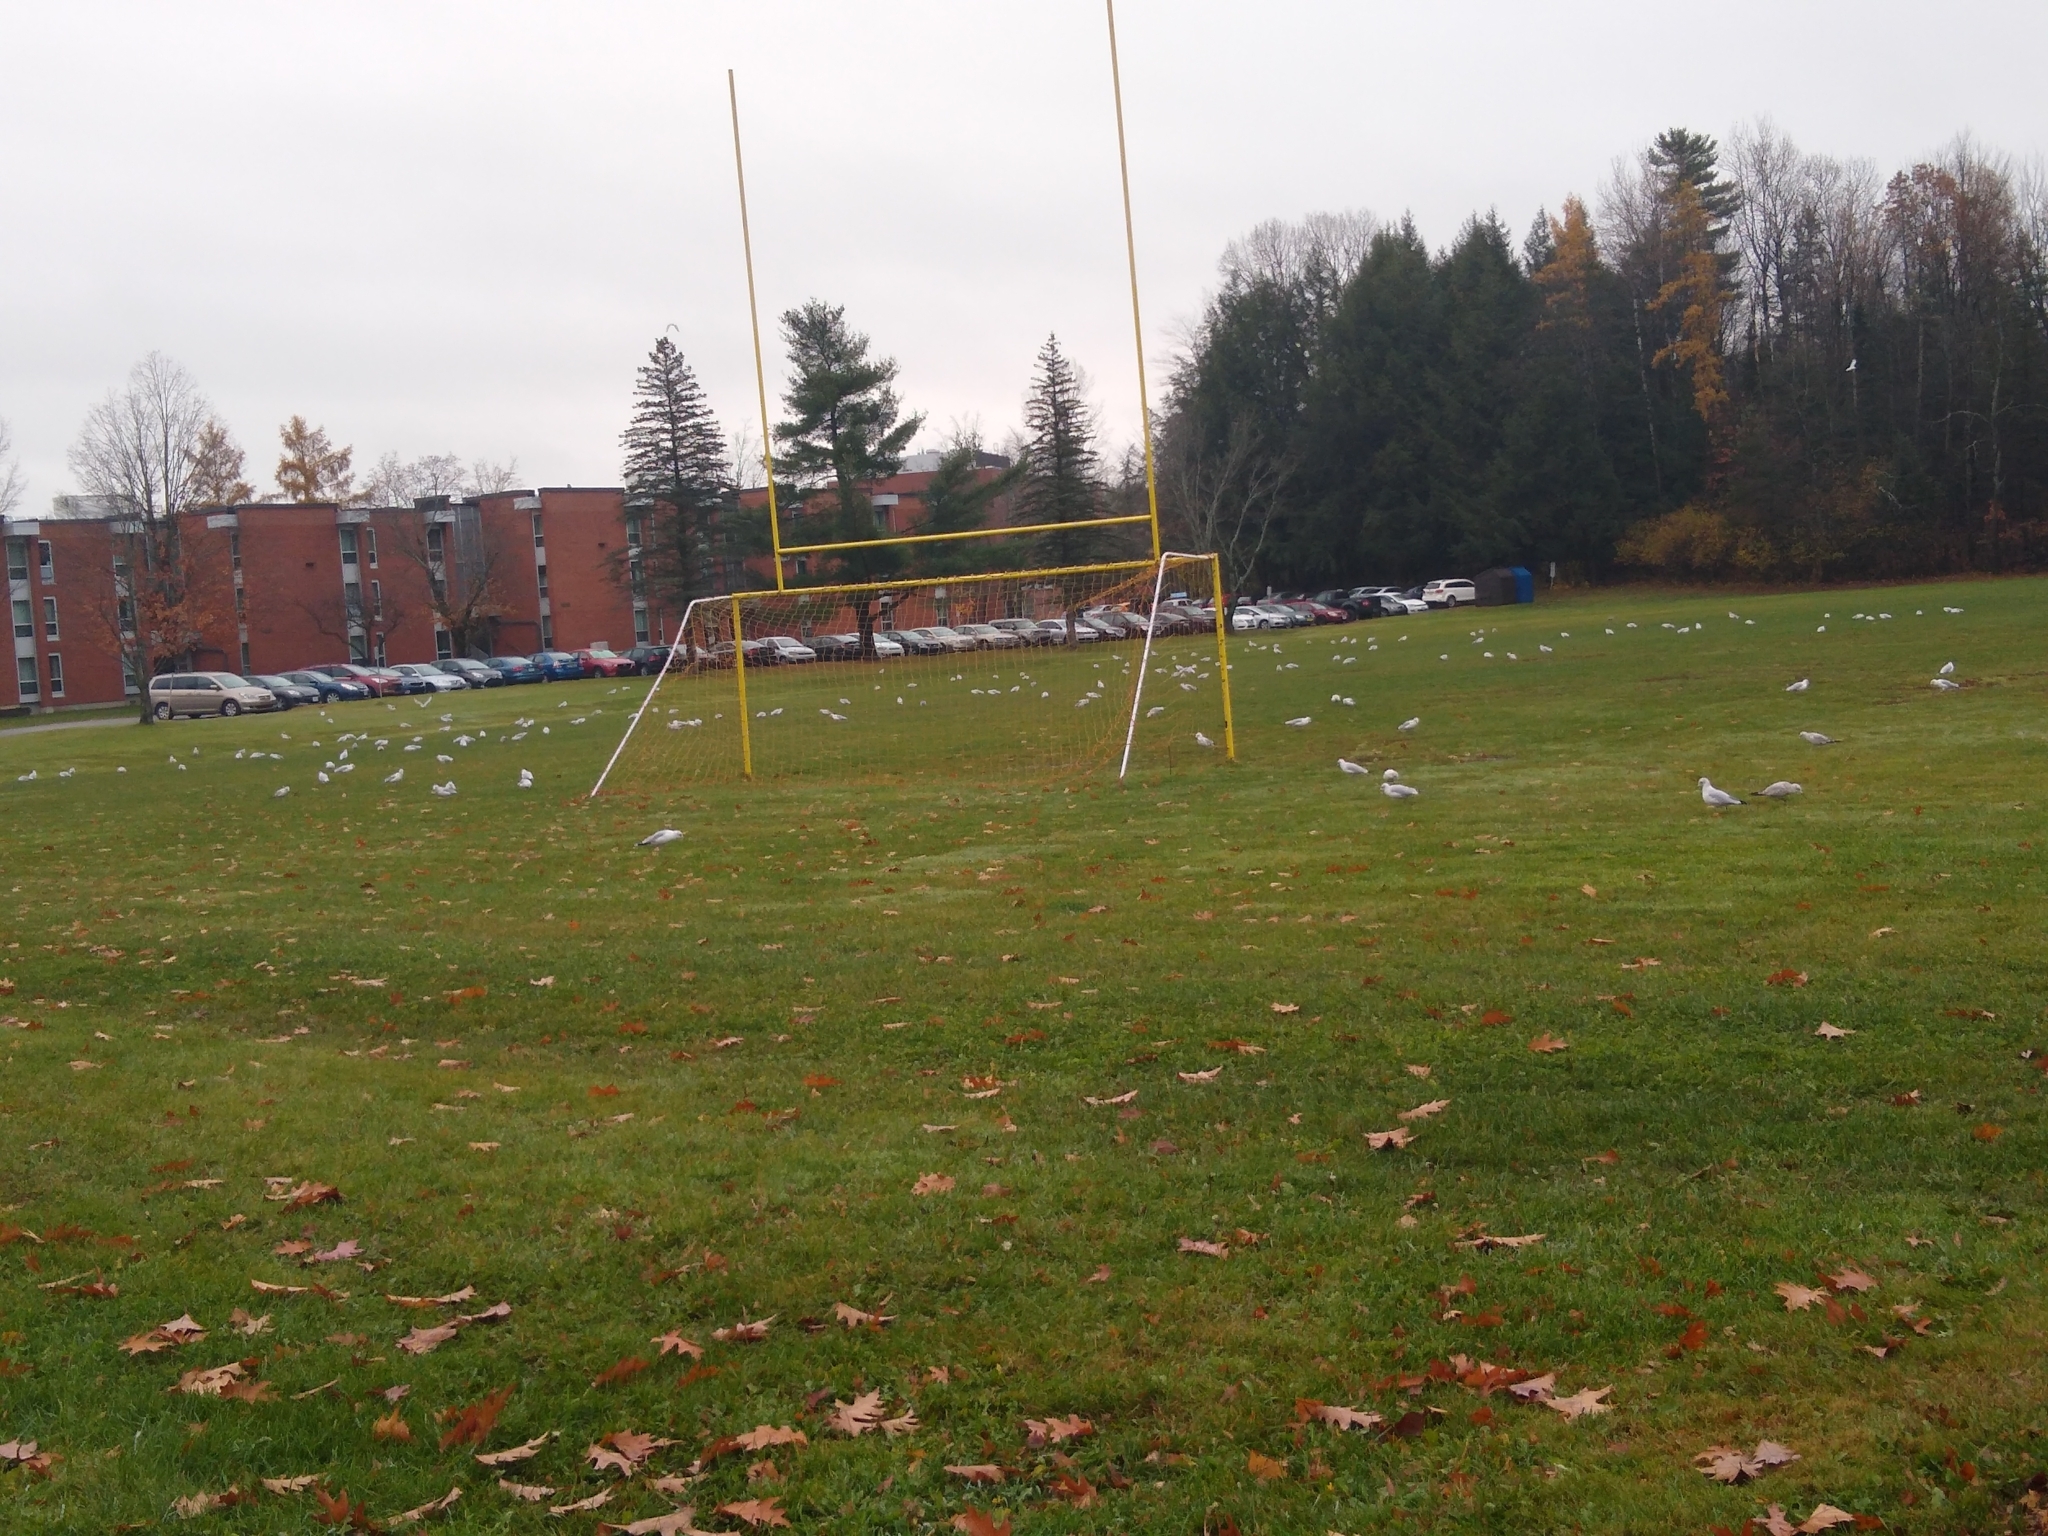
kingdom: Animalia
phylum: Chordata
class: Aves
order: Charadriiformes
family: Laridae
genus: Larus
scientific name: Larus delawarensis
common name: Ring-billed gull
